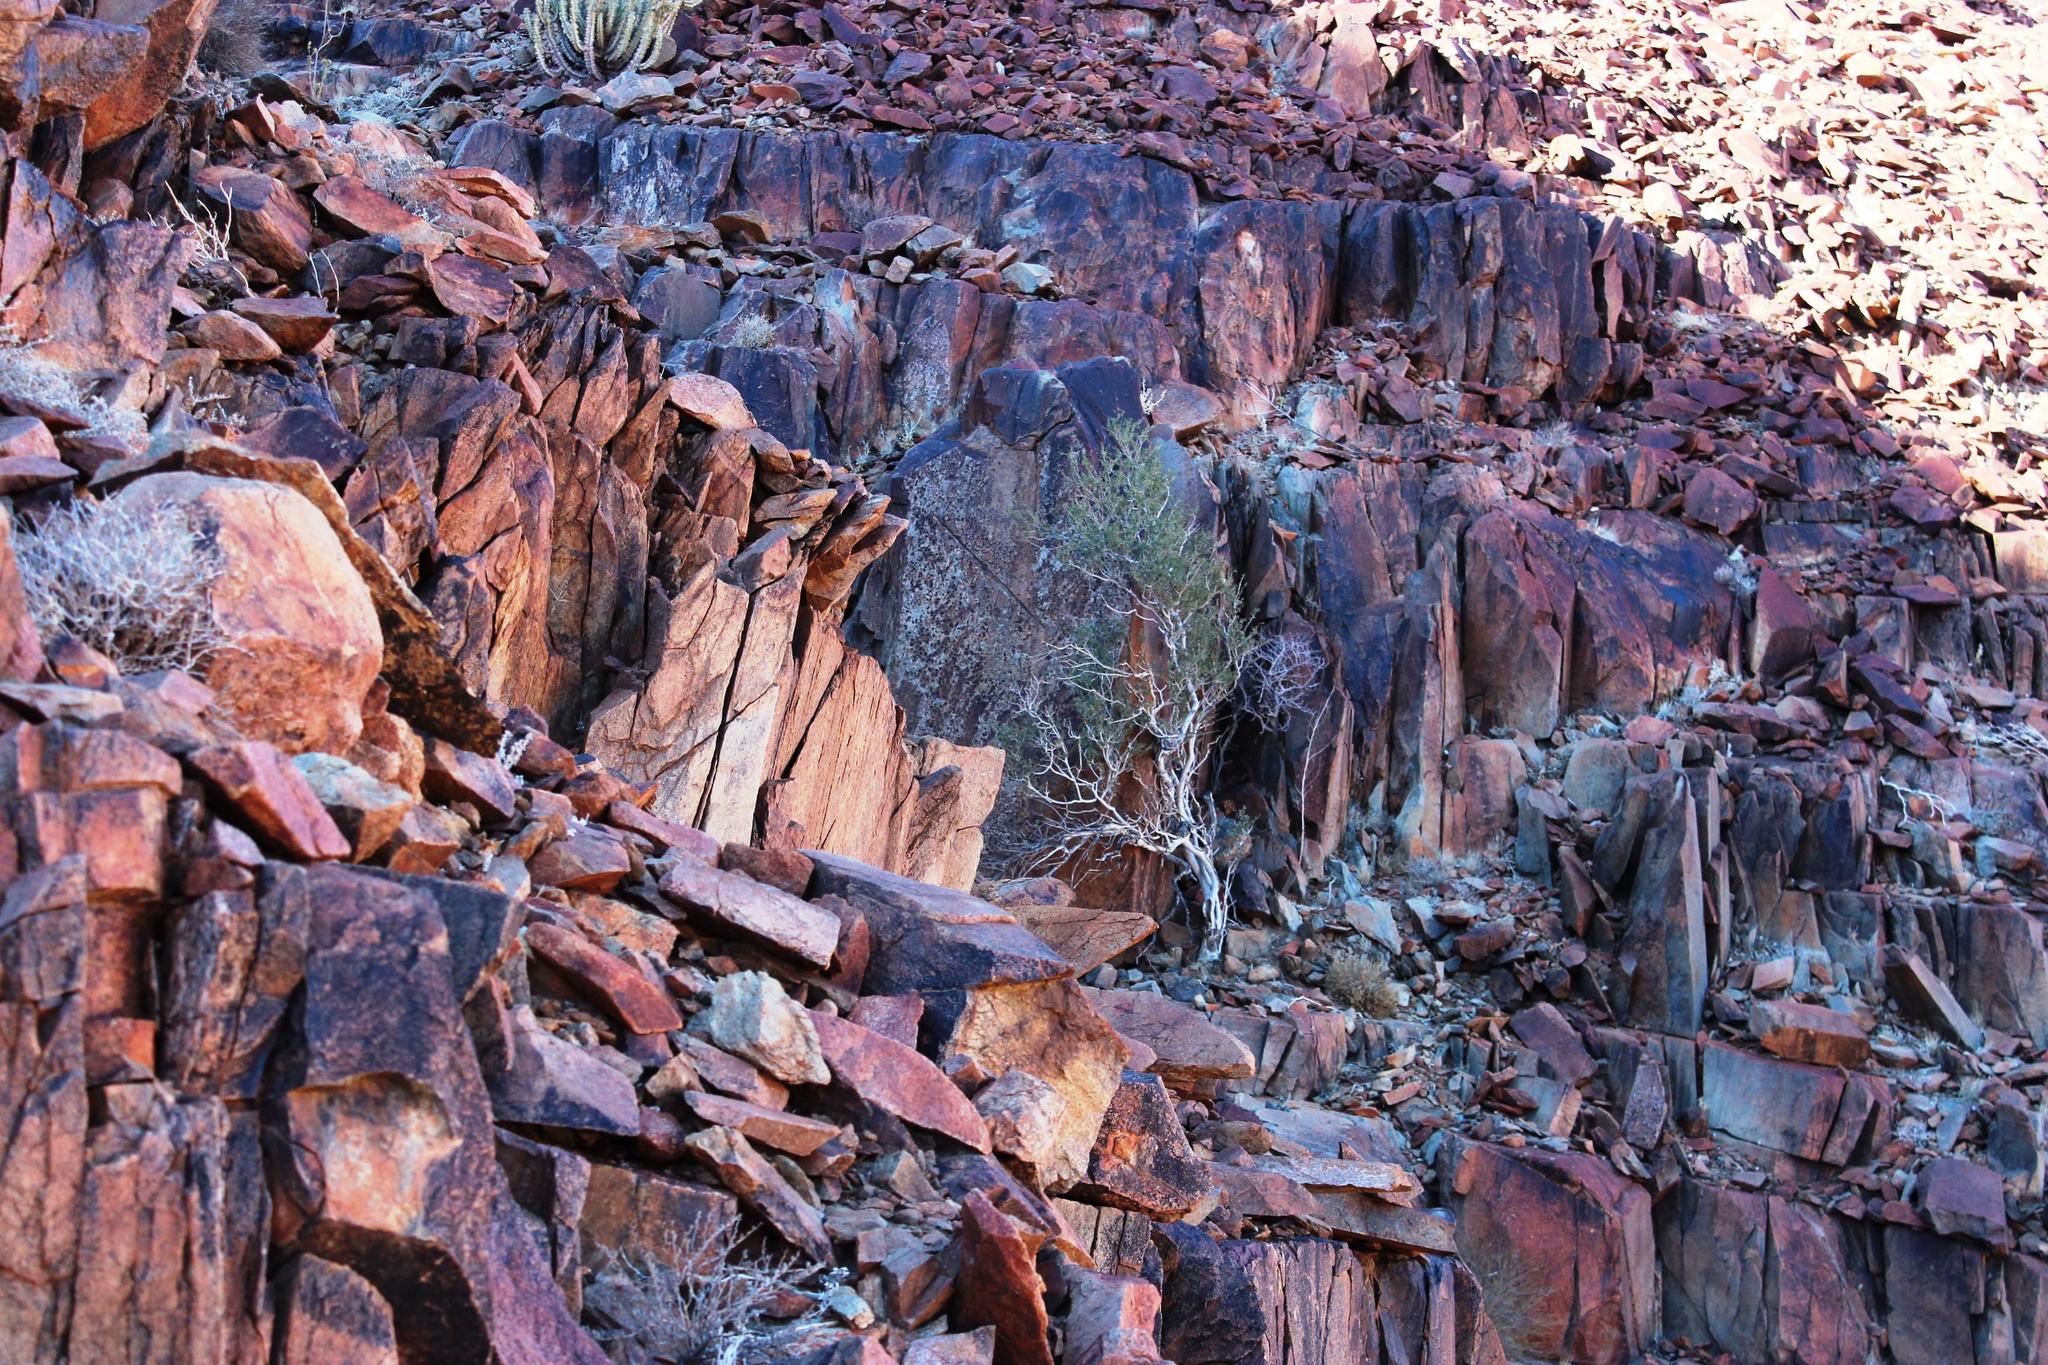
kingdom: Plantae
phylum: Tracheophyta
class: Magnoliopsida
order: Brassicales
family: Capparaceae
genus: Boscia
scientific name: Boscia albitrunca
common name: Caper bush
